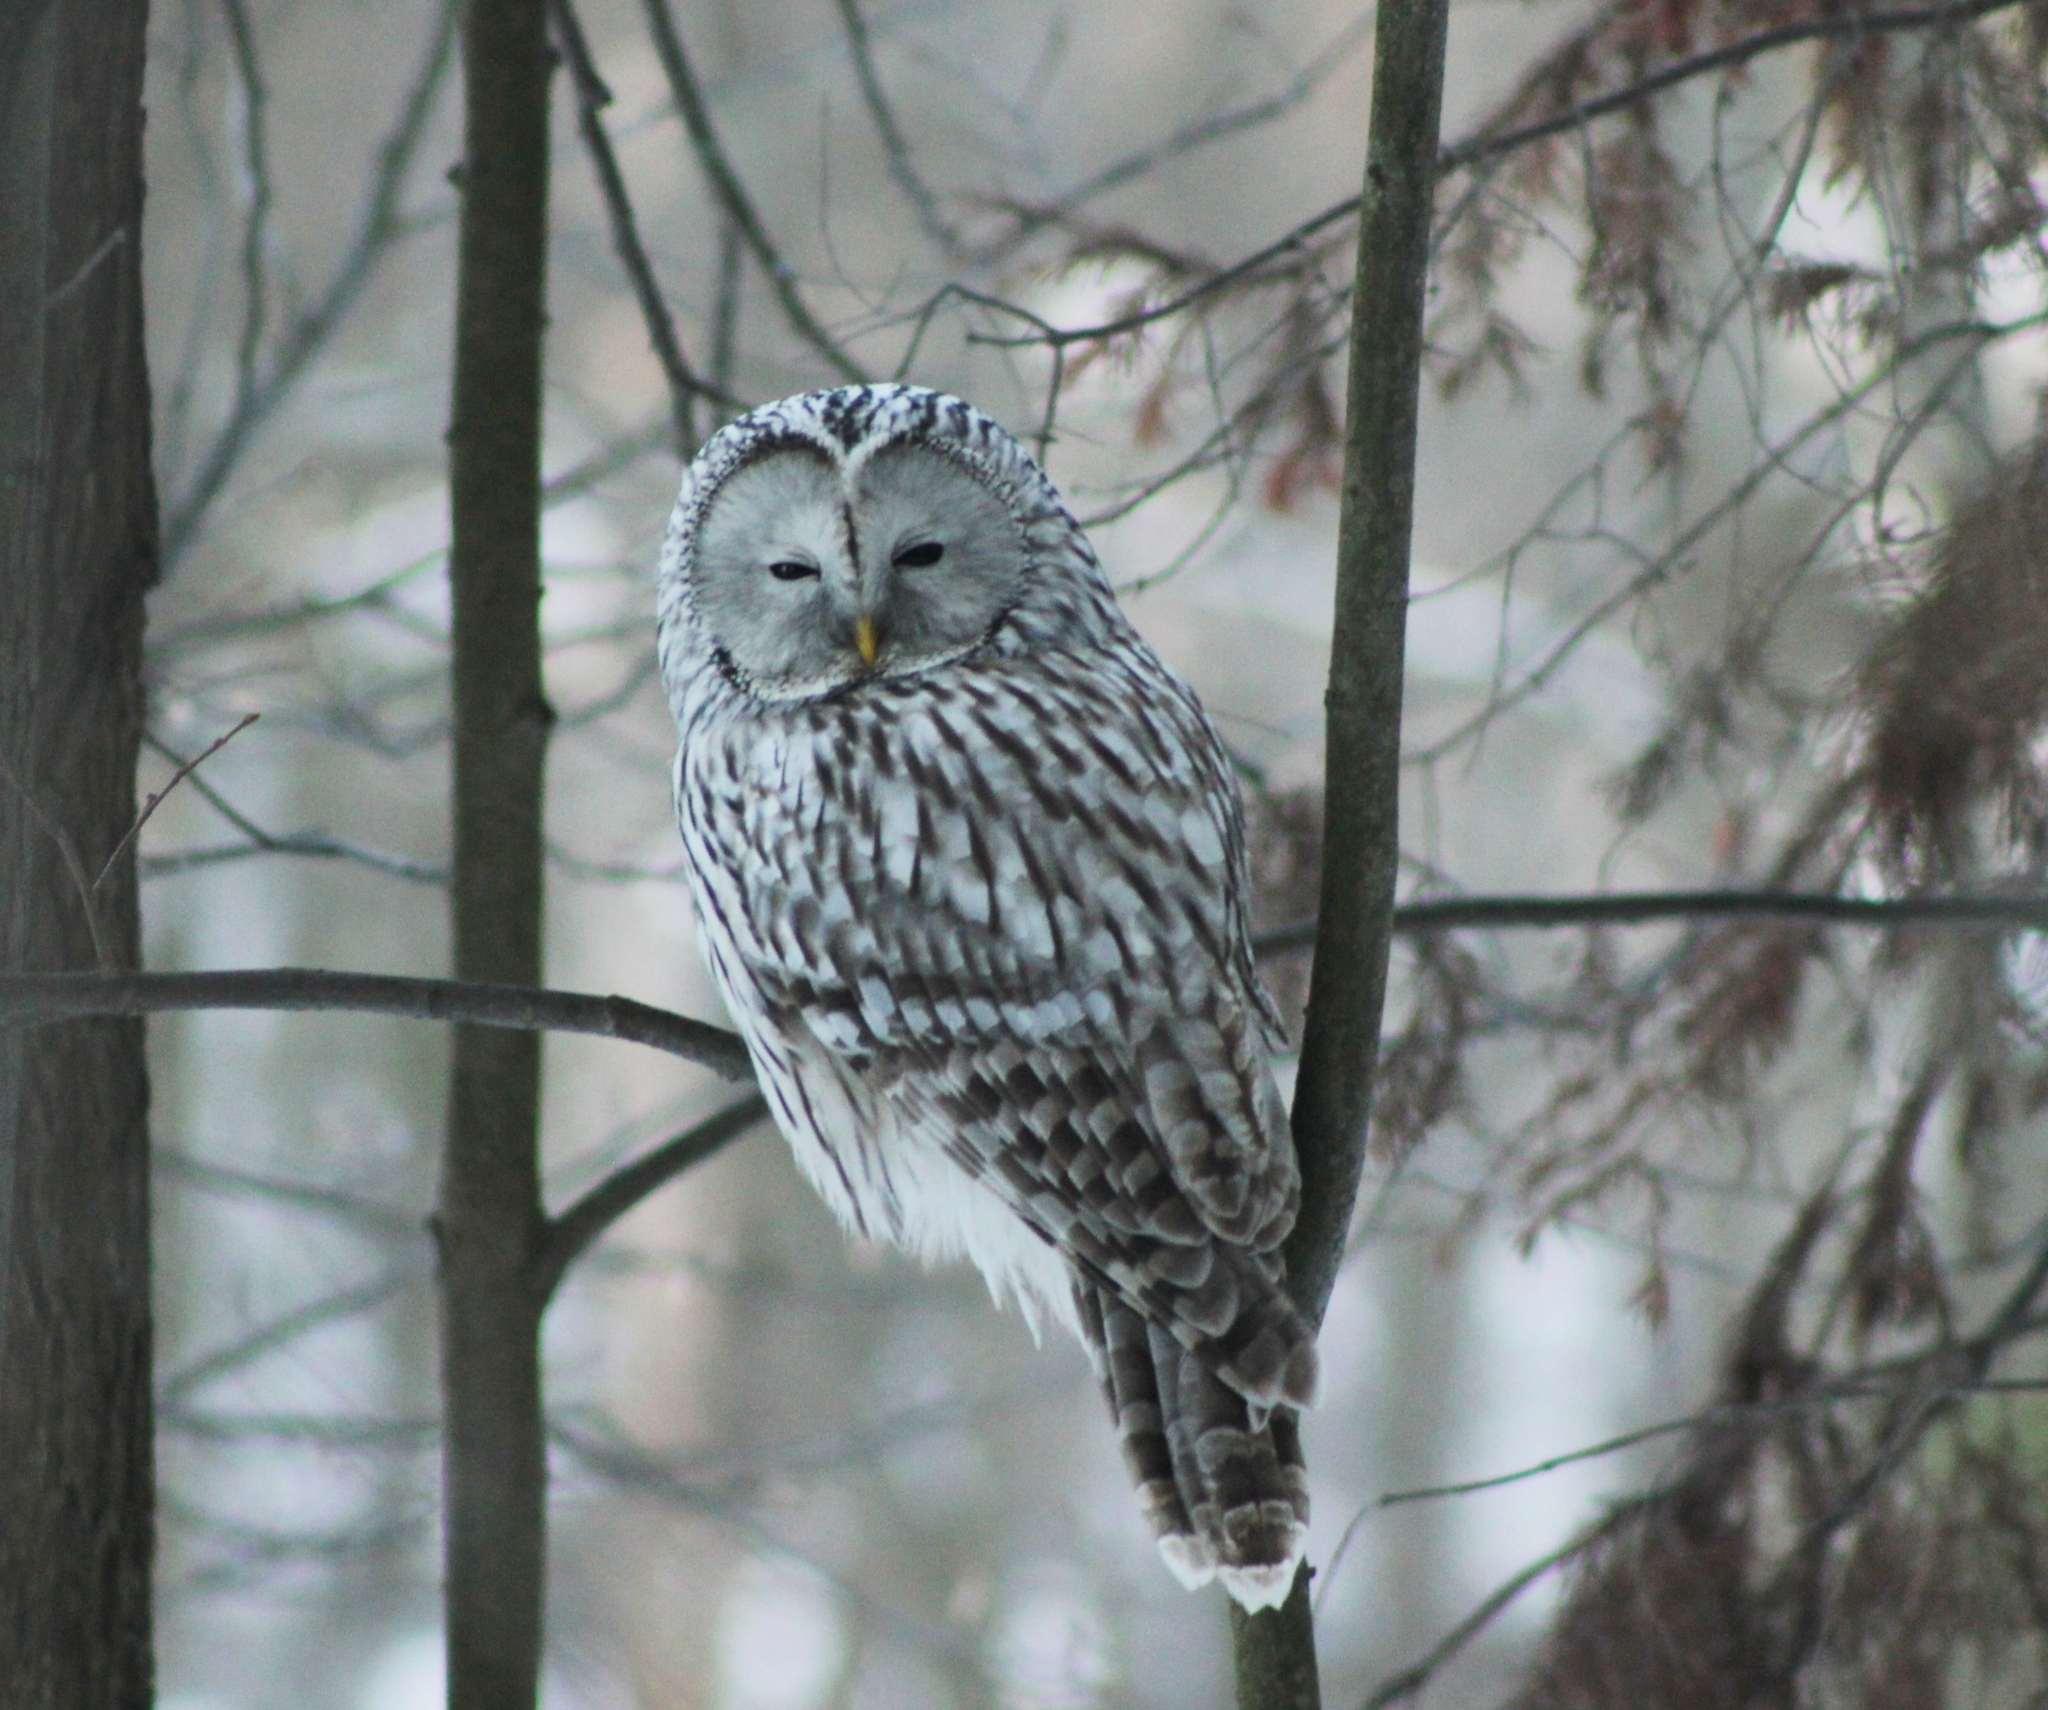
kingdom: Animalia
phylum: Chordata
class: Aves
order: Strigiformes
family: Strigidae
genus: Strix
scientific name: Strix uralensis
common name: Ural owl
